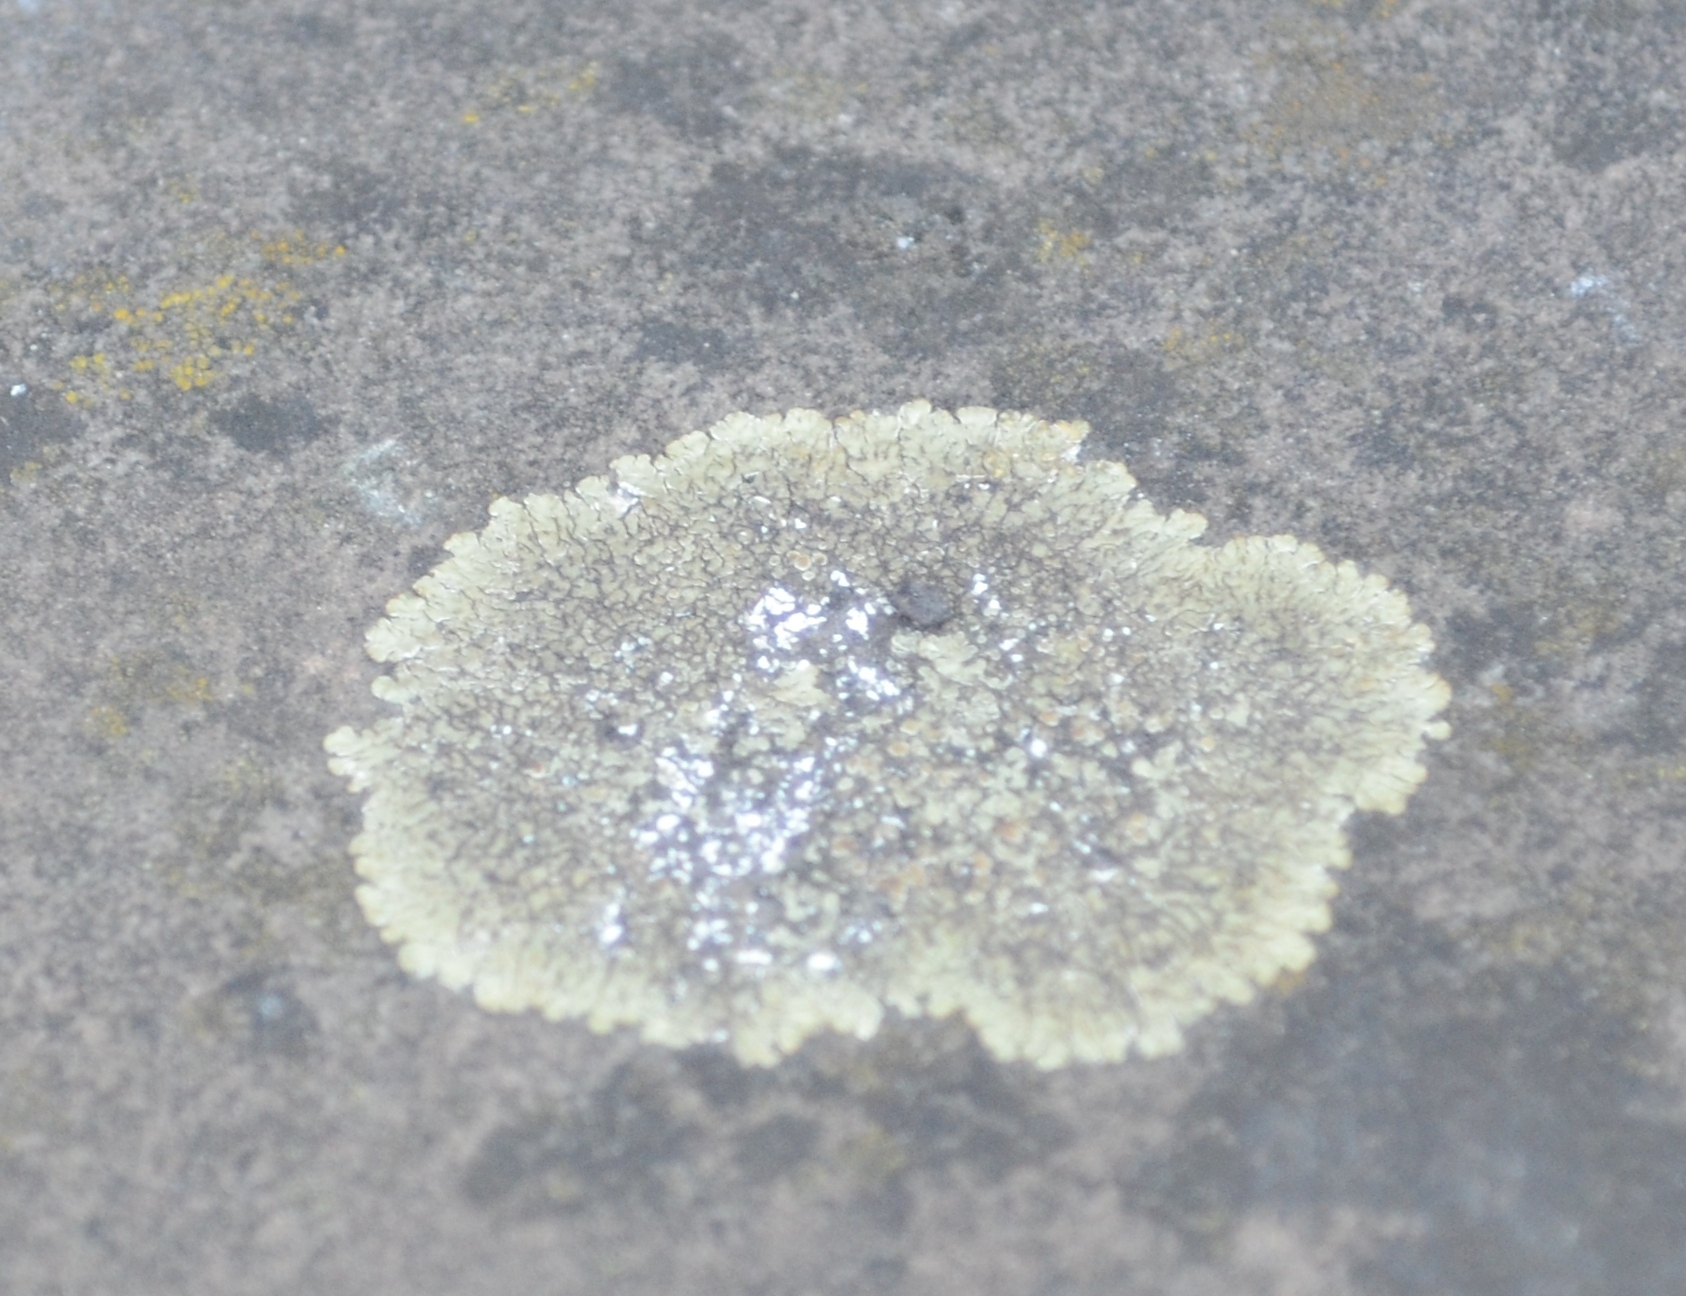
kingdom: Fungi
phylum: Ascomycota
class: Lecanoromycetes
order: Lecanorales
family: Lecanoraceae
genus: Protoparmeliopsis
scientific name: Protoparmeliopsis muralis
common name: Stonewall rim lichen
